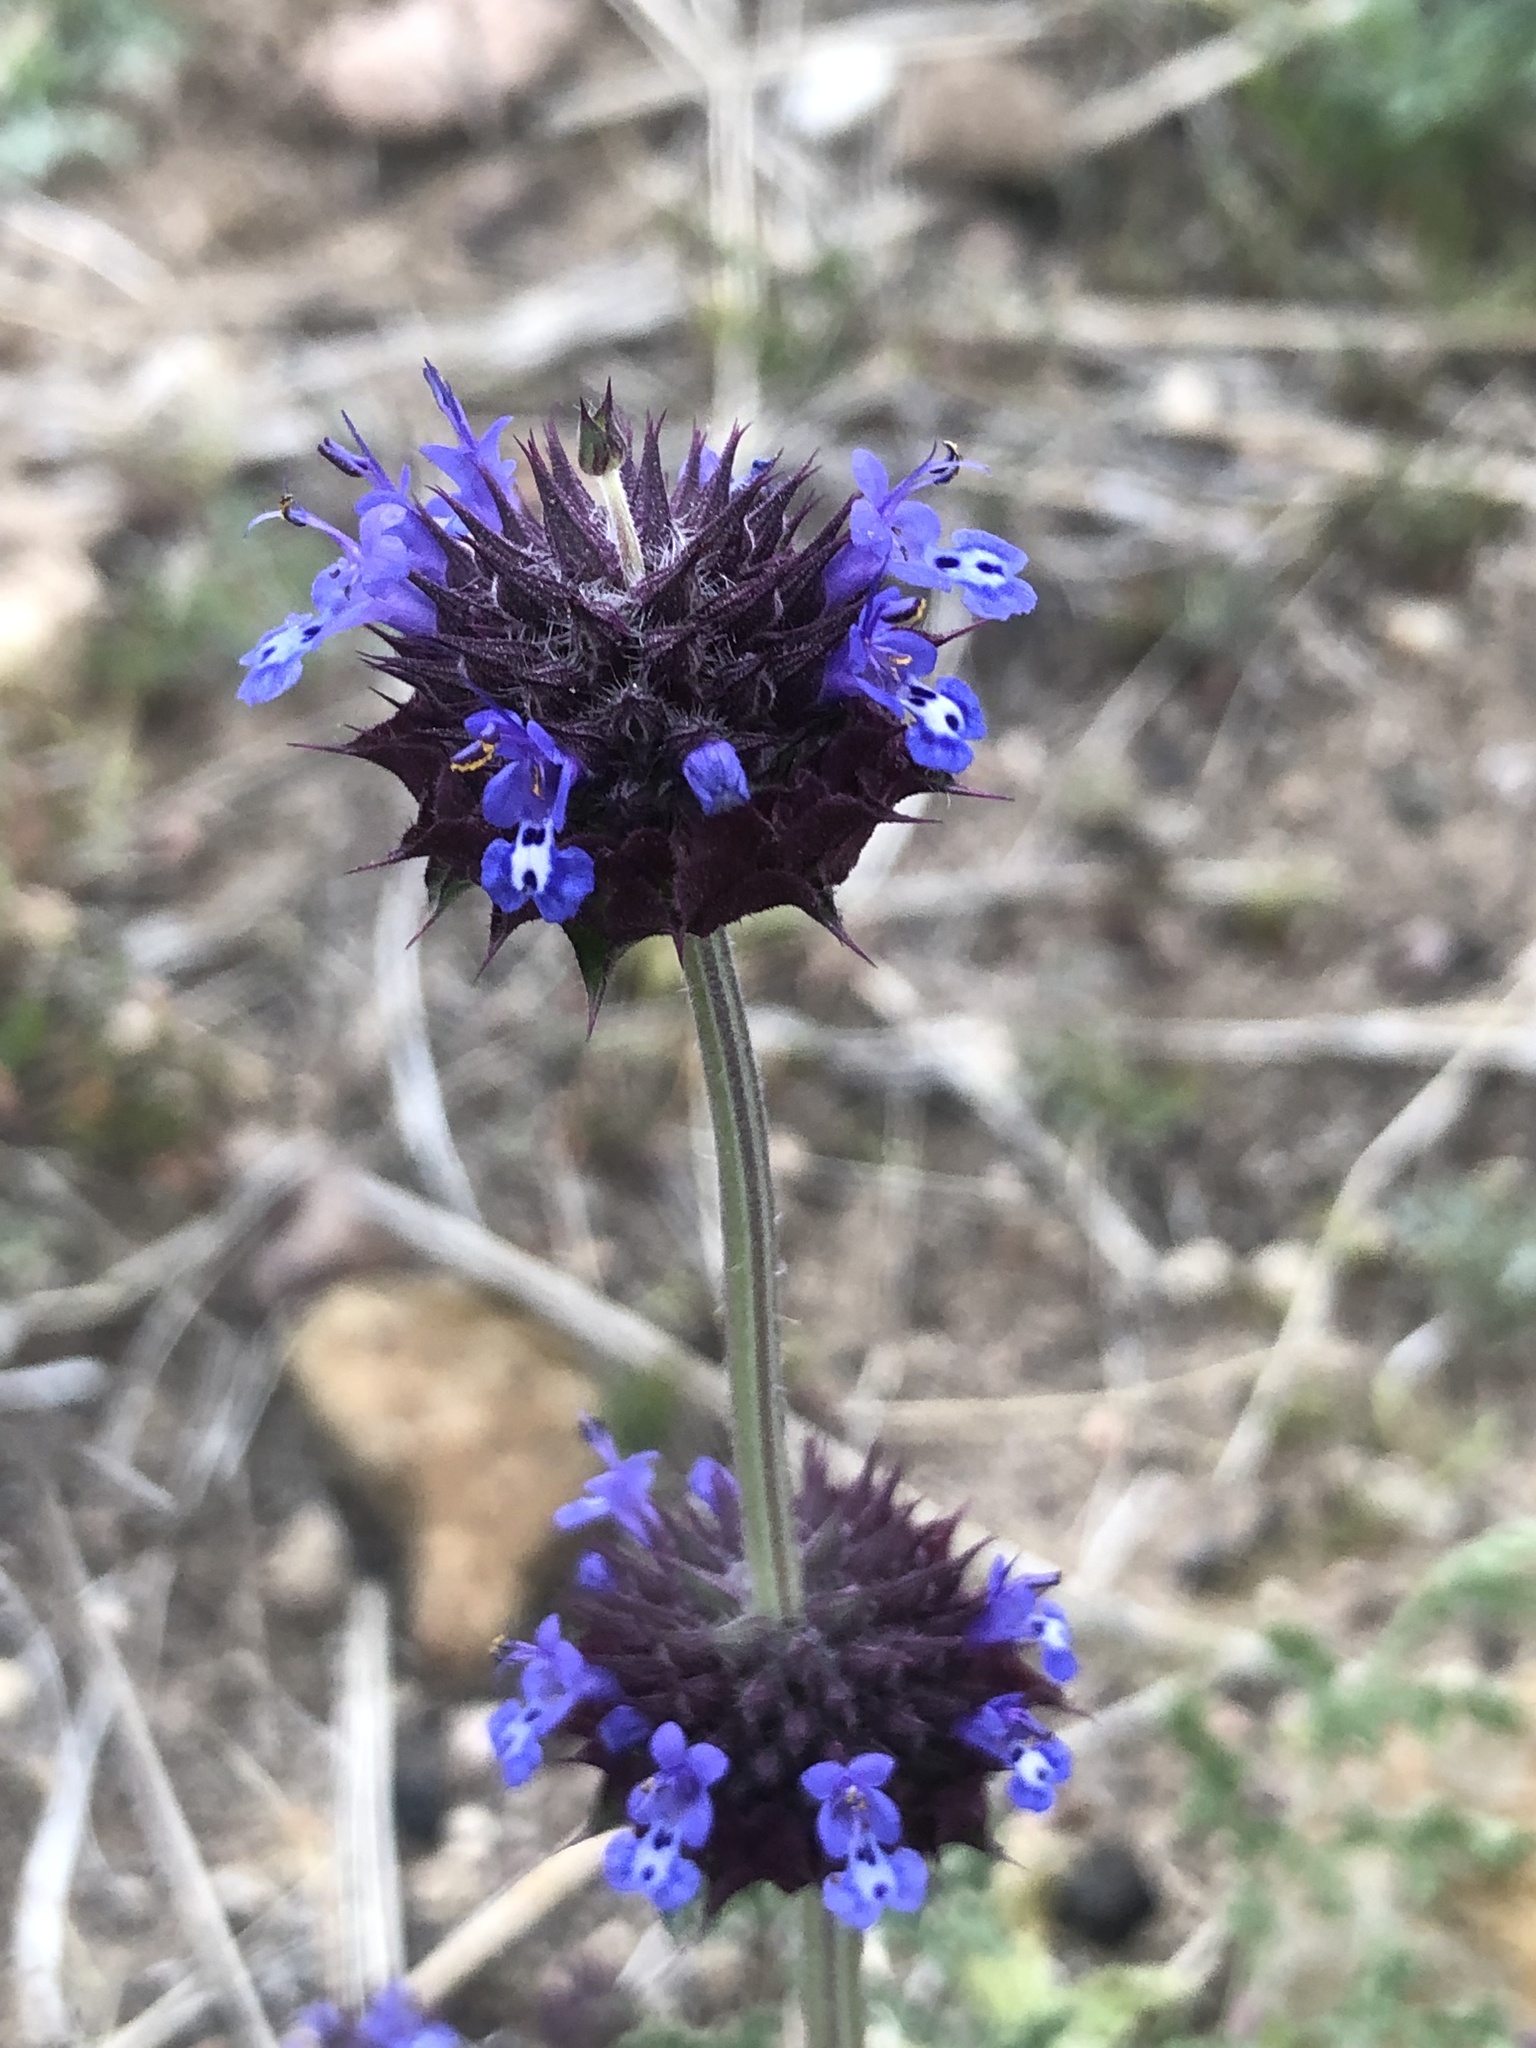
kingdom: Plantae
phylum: Tracheophyta
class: Magnoliopsida
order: Lamiales
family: Lamiaceae
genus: Salvia
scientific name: Salvia columbariae
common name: Chia
